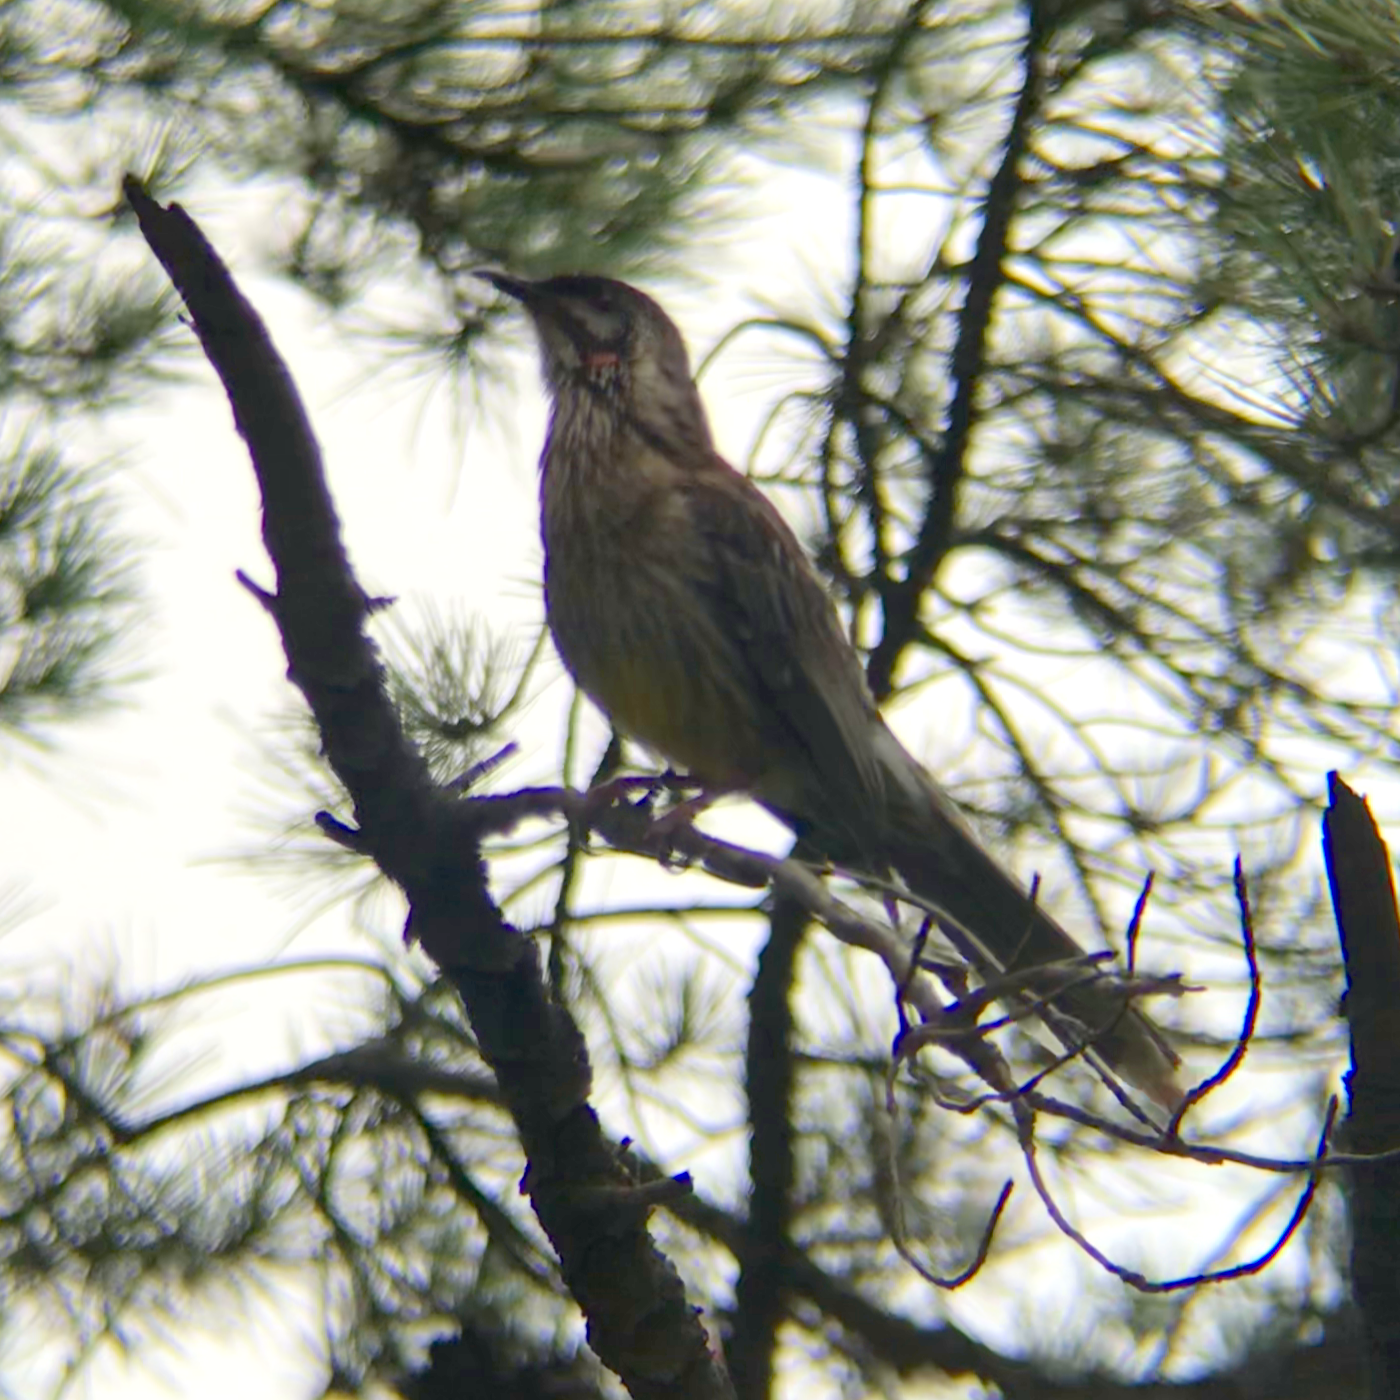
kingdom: Animalia
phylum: Chordata
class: Aves
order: Passeriformes
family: Meliphagidae
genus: Anthochaera
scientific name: Anthochaera carunculata
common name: Red wattlebird
